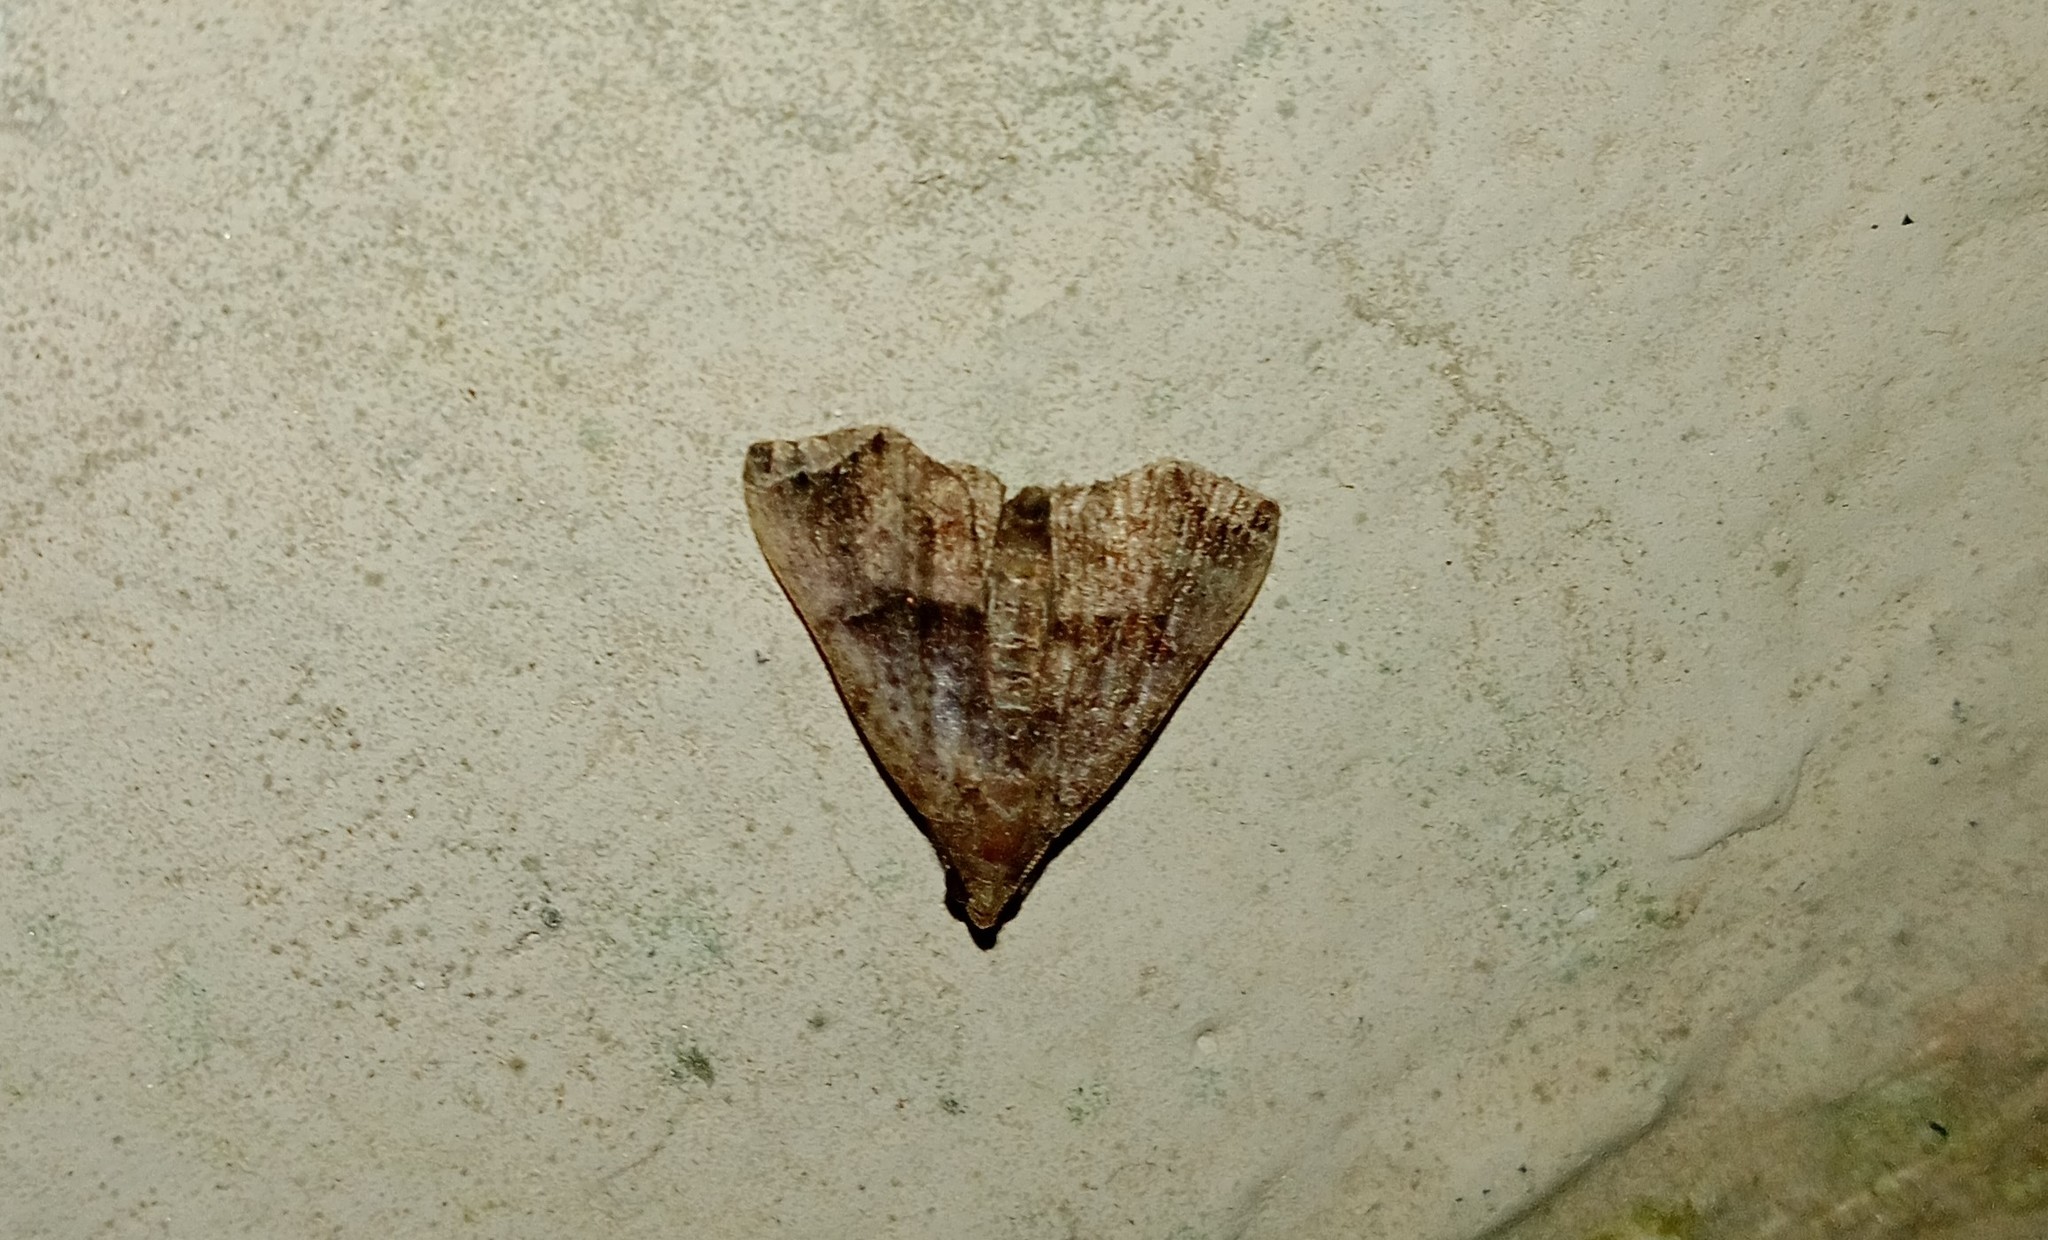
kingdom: Animalia
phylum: Arthropoda
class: Insecta
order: Lepidoptera
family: Erebidae
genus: Polypogon
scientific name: Polypogon biasalis
